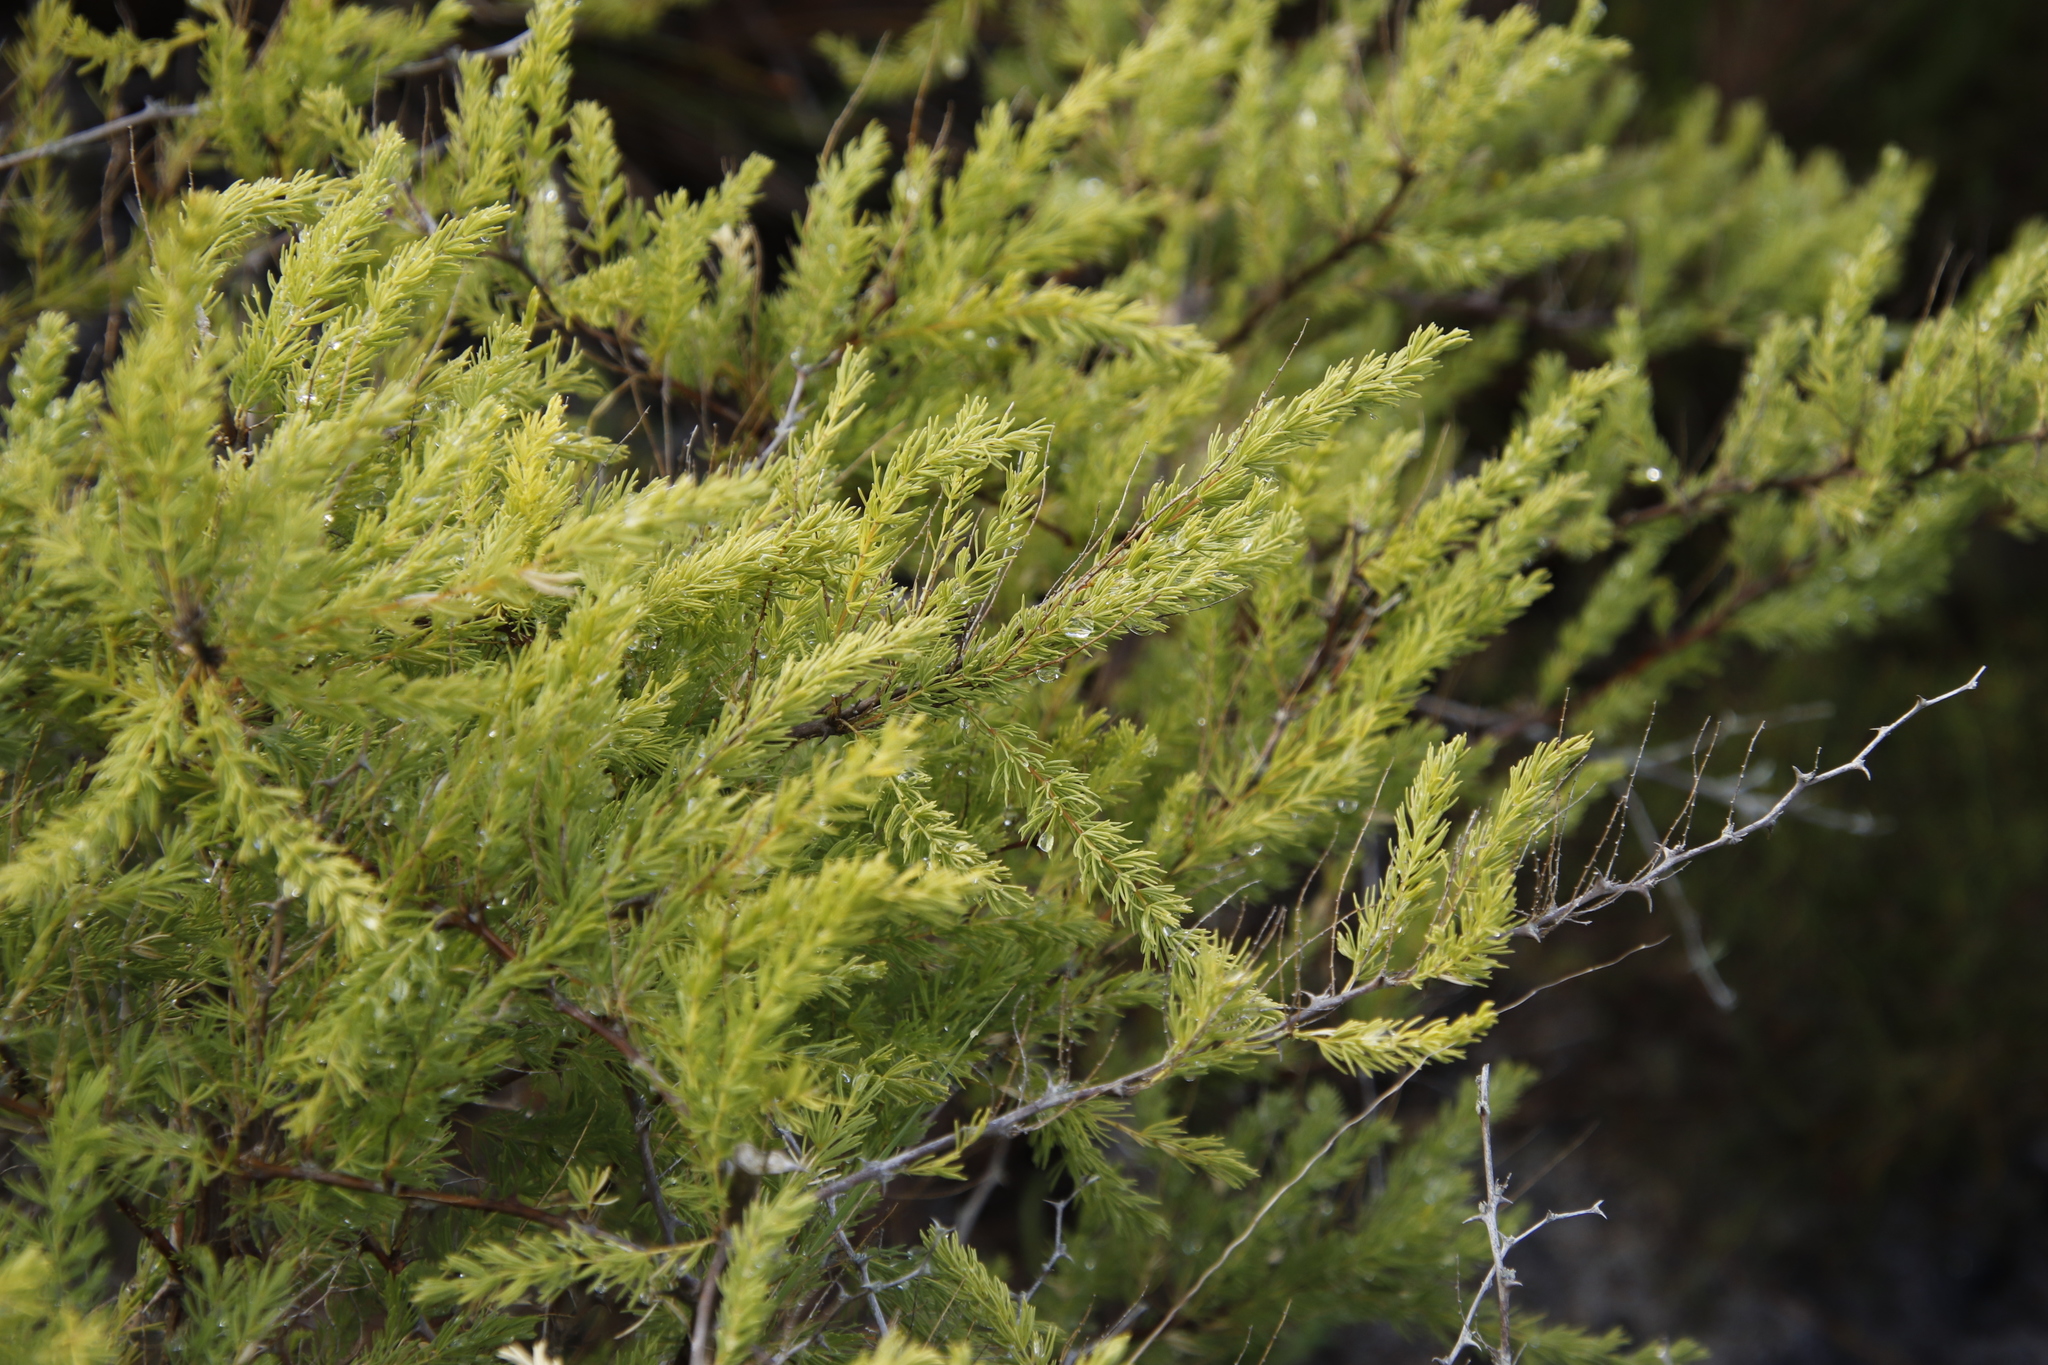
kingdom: Plantae
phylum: Tracheophyta
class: Liliopsida
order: Asparagales
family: Asparagaceae
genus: Asparagus
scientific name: Asparagus rubicundus
